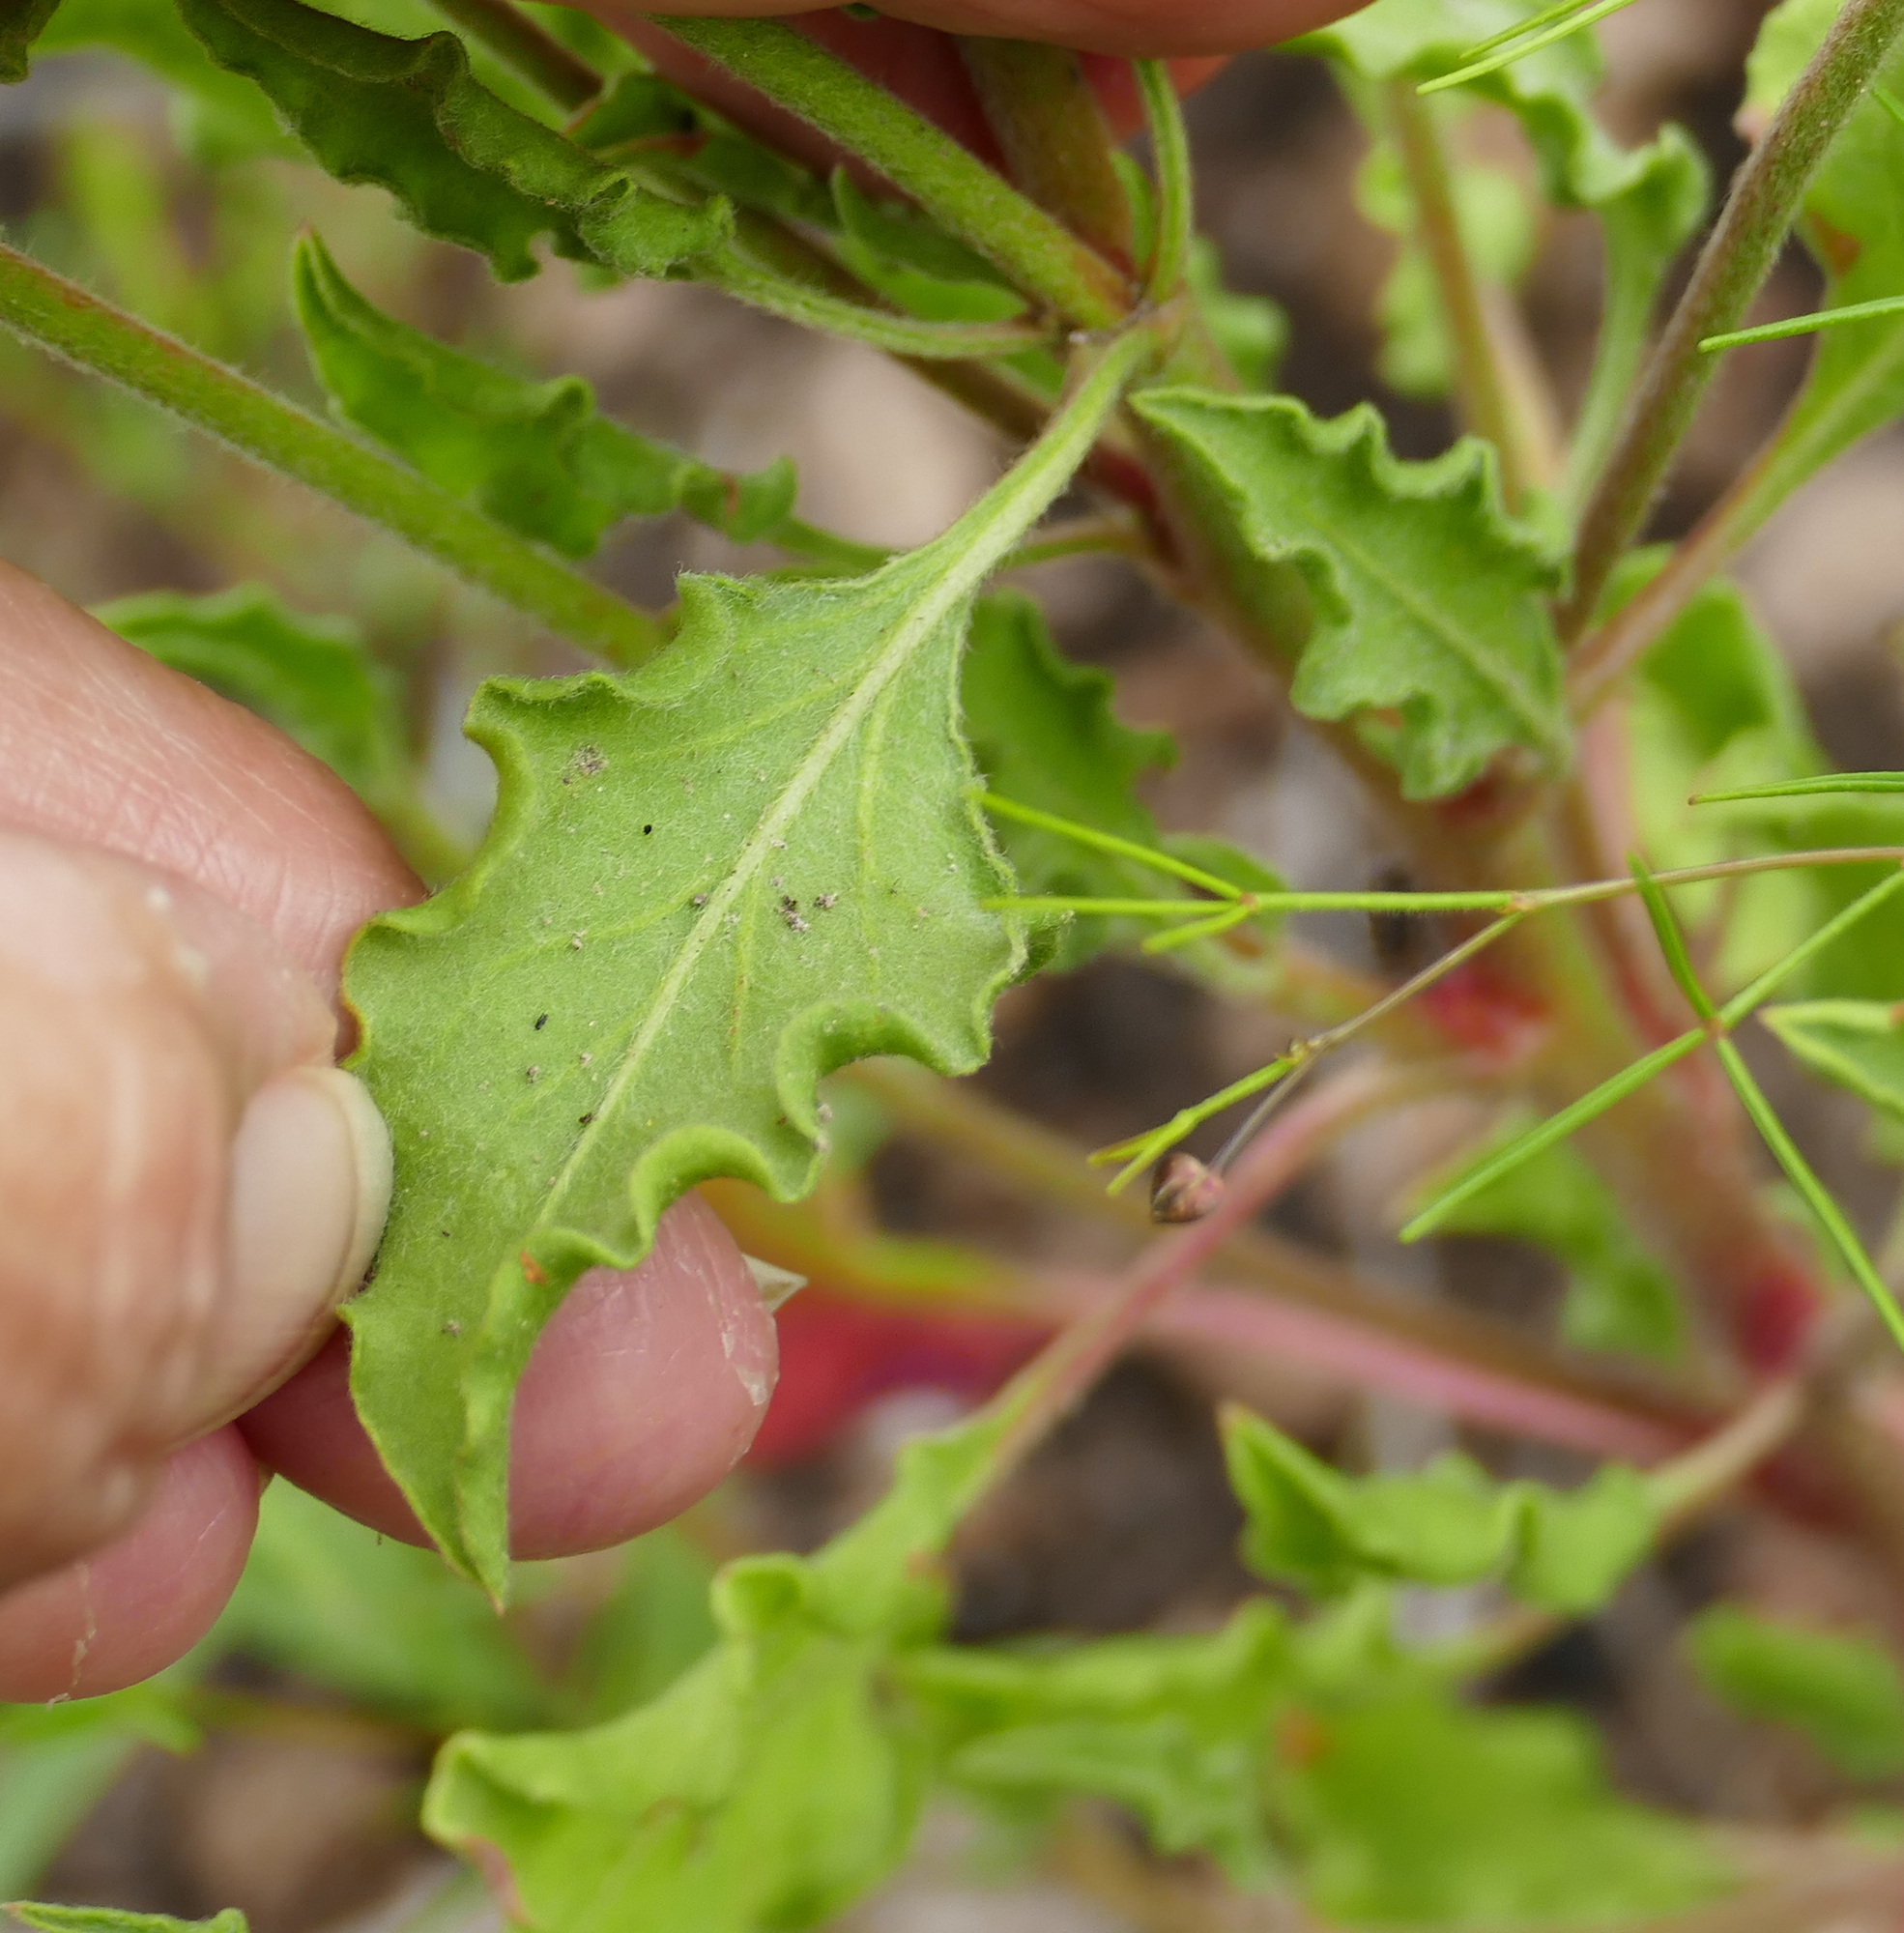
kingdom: Plantae
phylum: Tracheophyta
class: Magnoliopsida
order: Caryophyllales
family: Polygonaceae
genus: Eriogonum
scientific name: Eriogonum abertianum
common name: Abert's wild buckwheat
